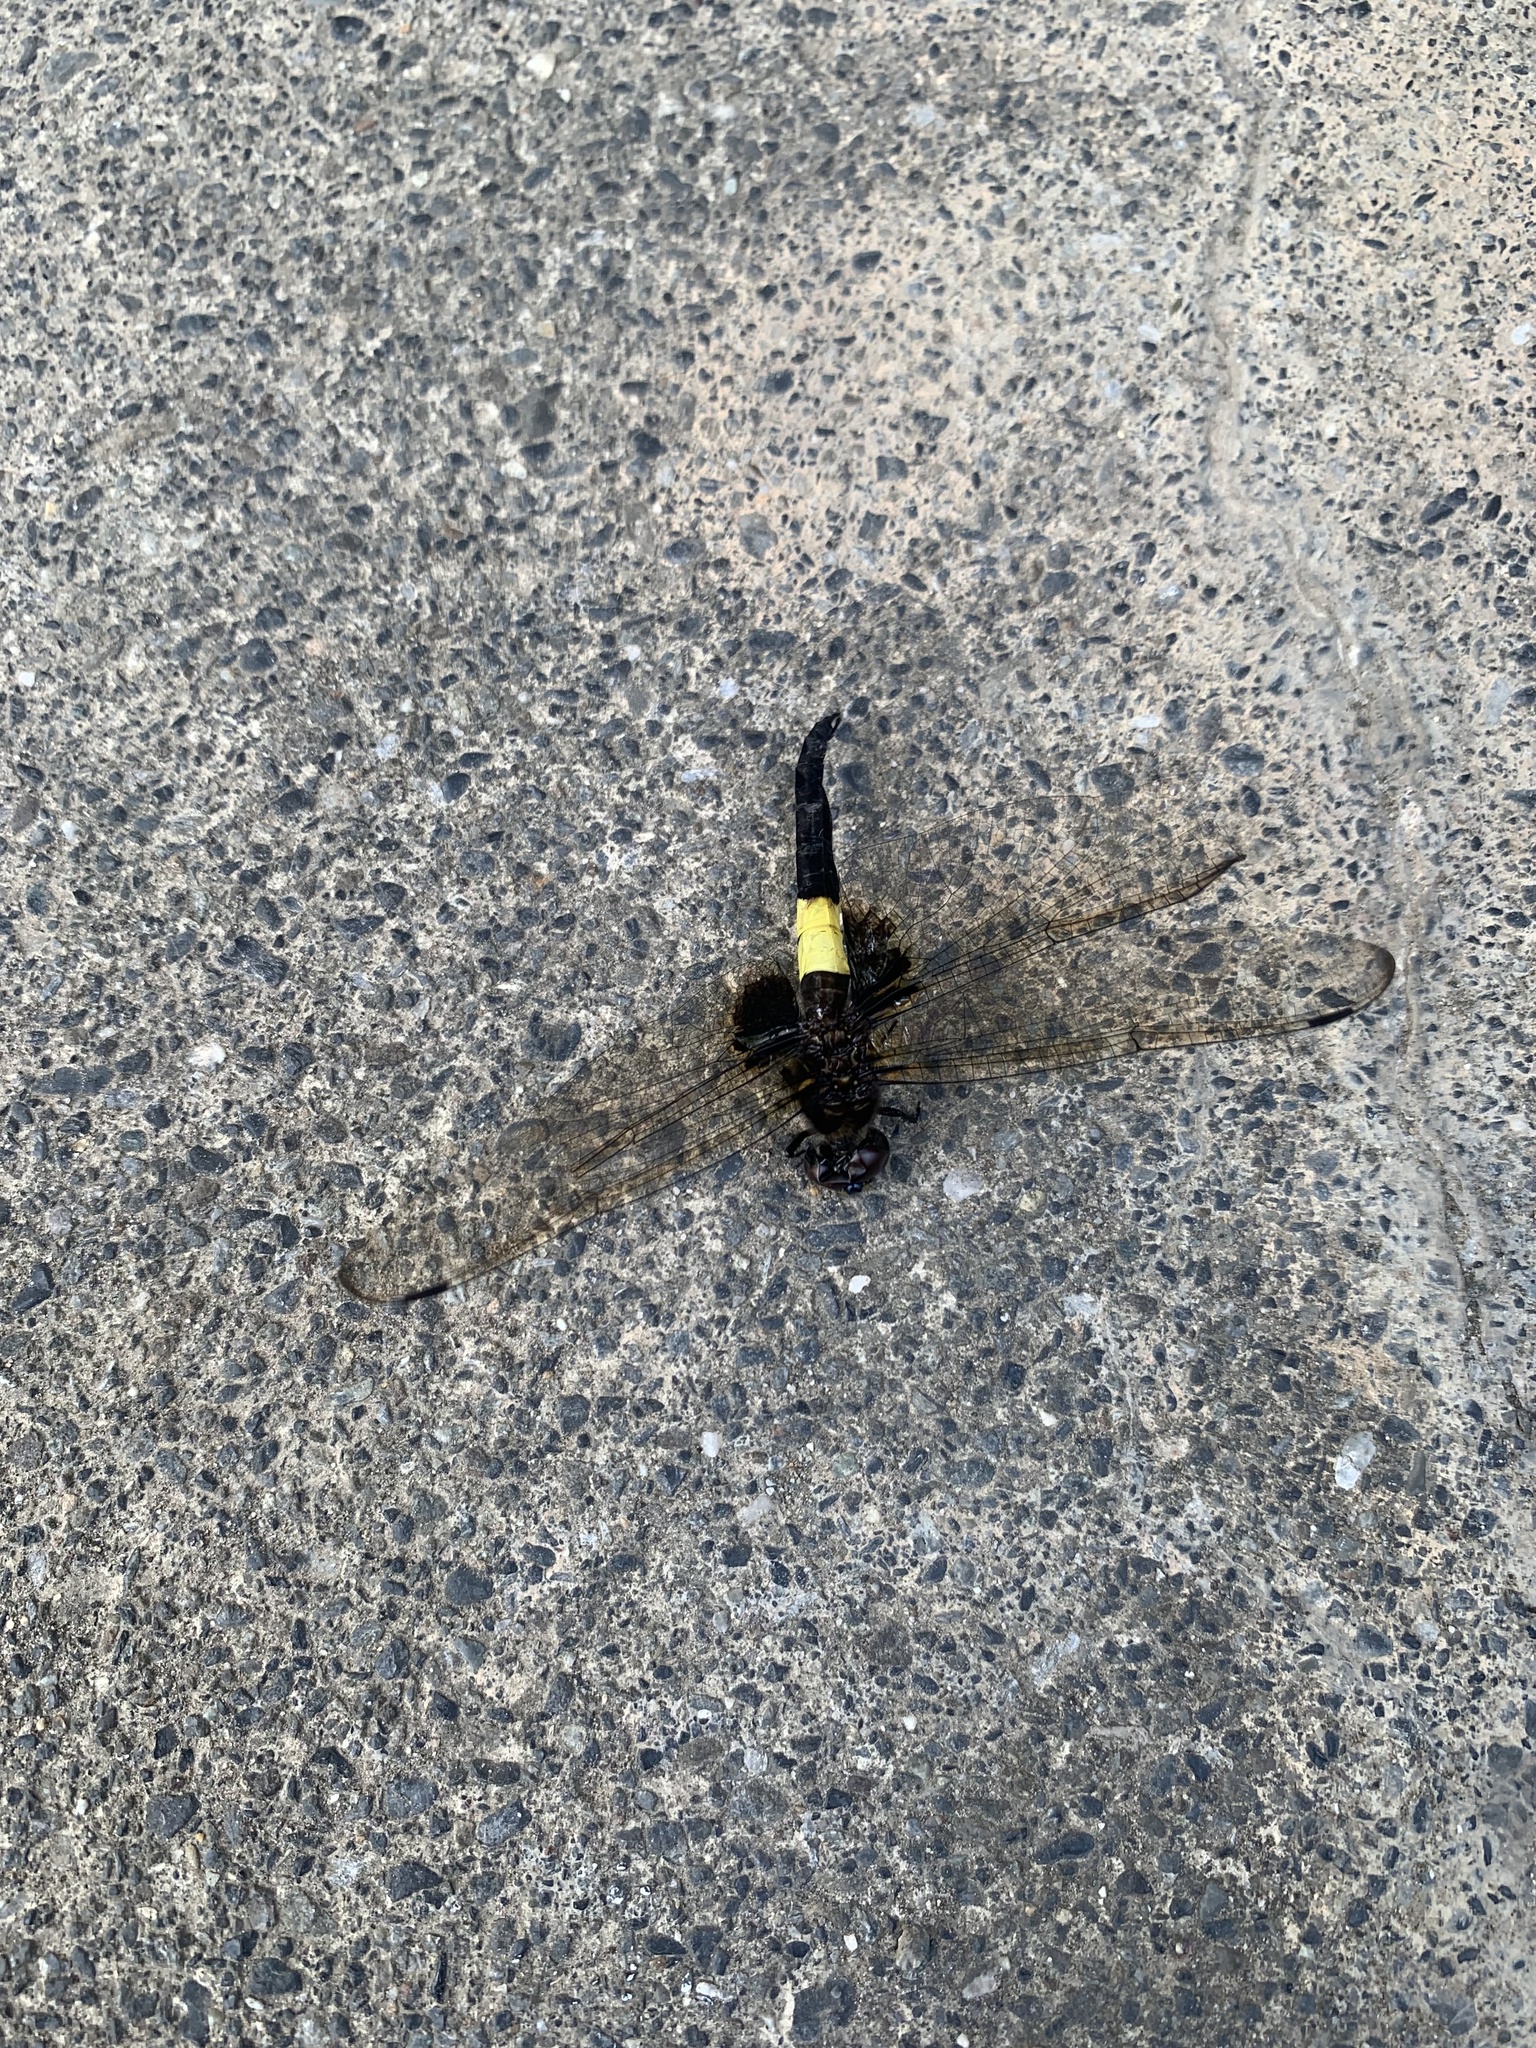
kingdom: Animalia
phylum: Arthropoda
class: Insecta
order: Odonata
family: Libellulidae
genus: Pseudothemis
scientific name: Pseudothemis zonata
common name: Pied skimmer
